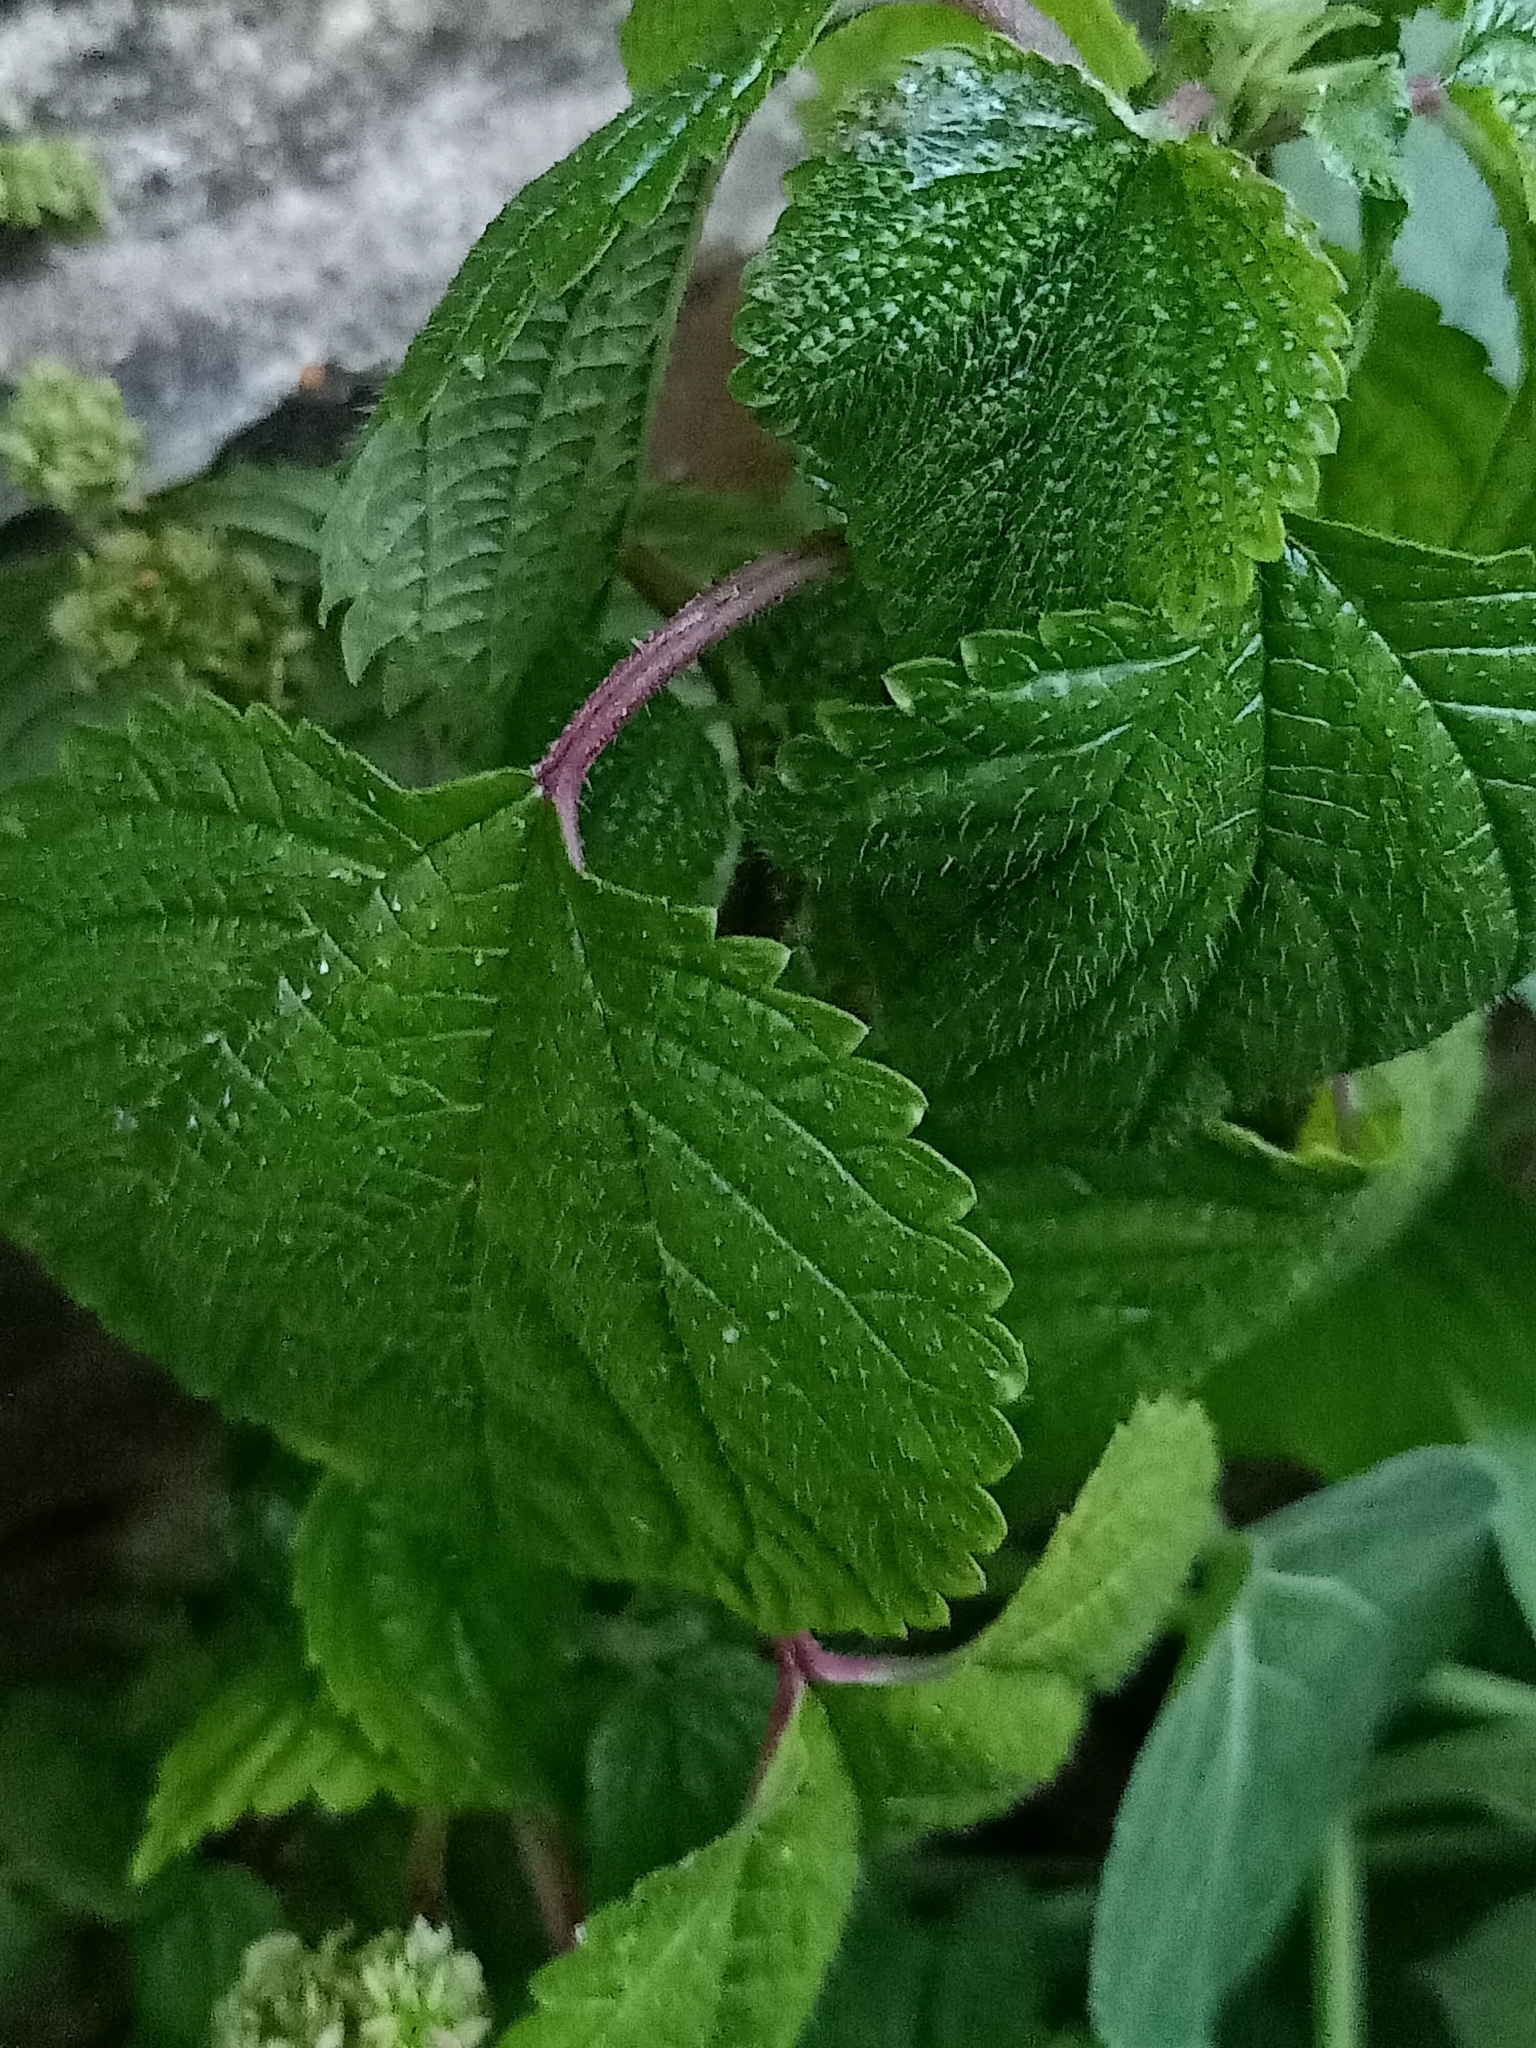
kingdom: Plantae
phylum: Tracheophyta
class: Magnoliopsida
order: Rosales
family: Urticaceae
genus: Laportea
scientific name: Laportea interrupta
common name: Hawaiian wood-nettle
